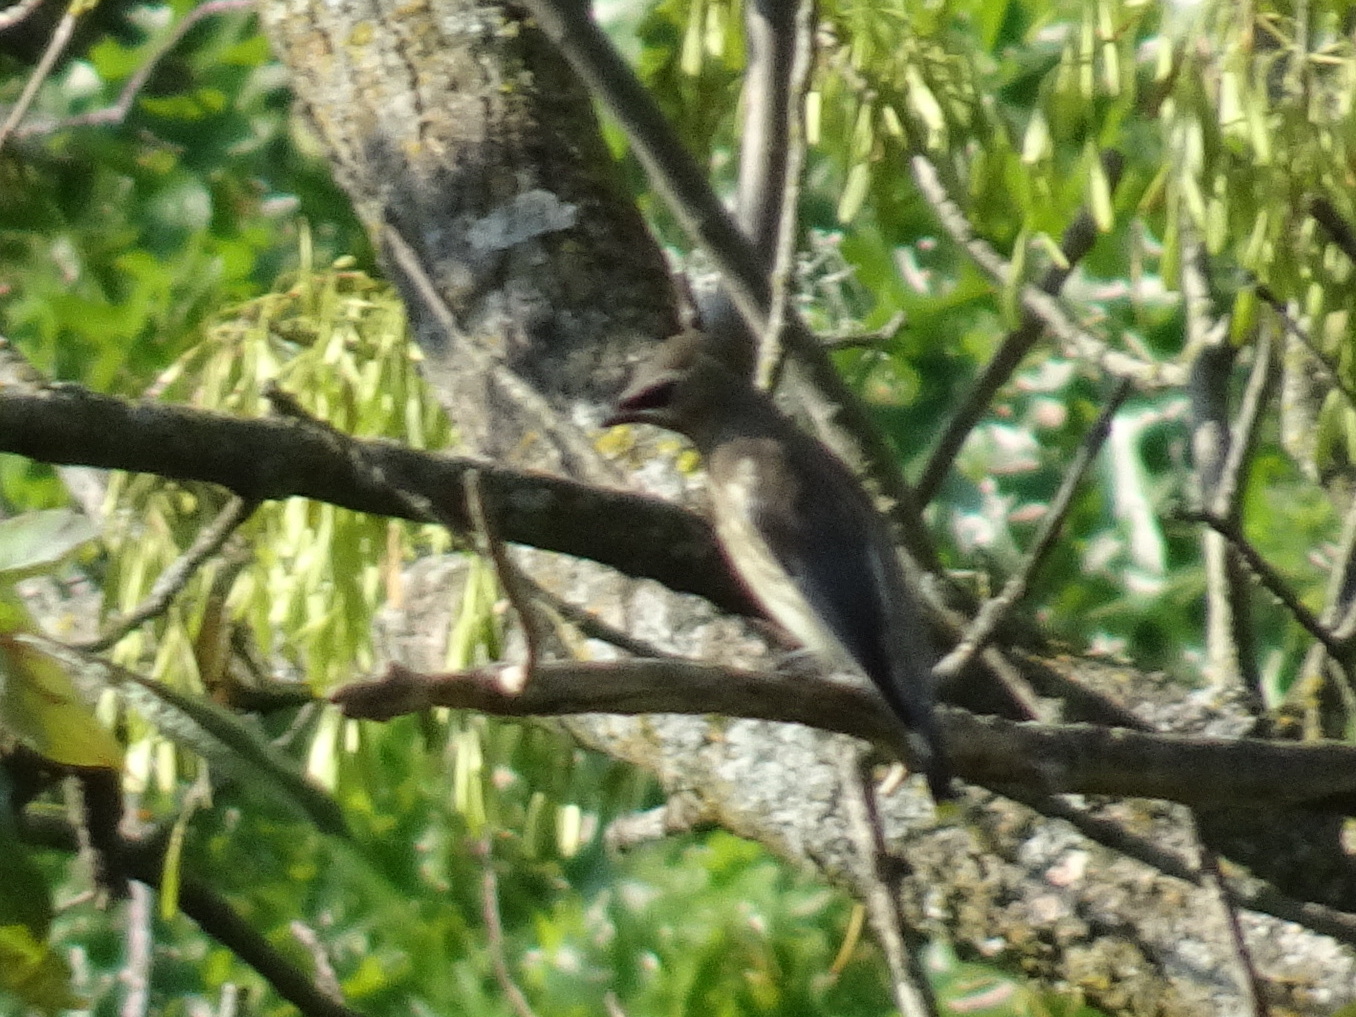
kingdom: Animalia
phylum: Chordata
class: Aves
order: Passeriformes
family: Bombycillidae
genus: Bombycilla
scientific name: Bombycilla cedrorum
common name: Cedar waxwing
